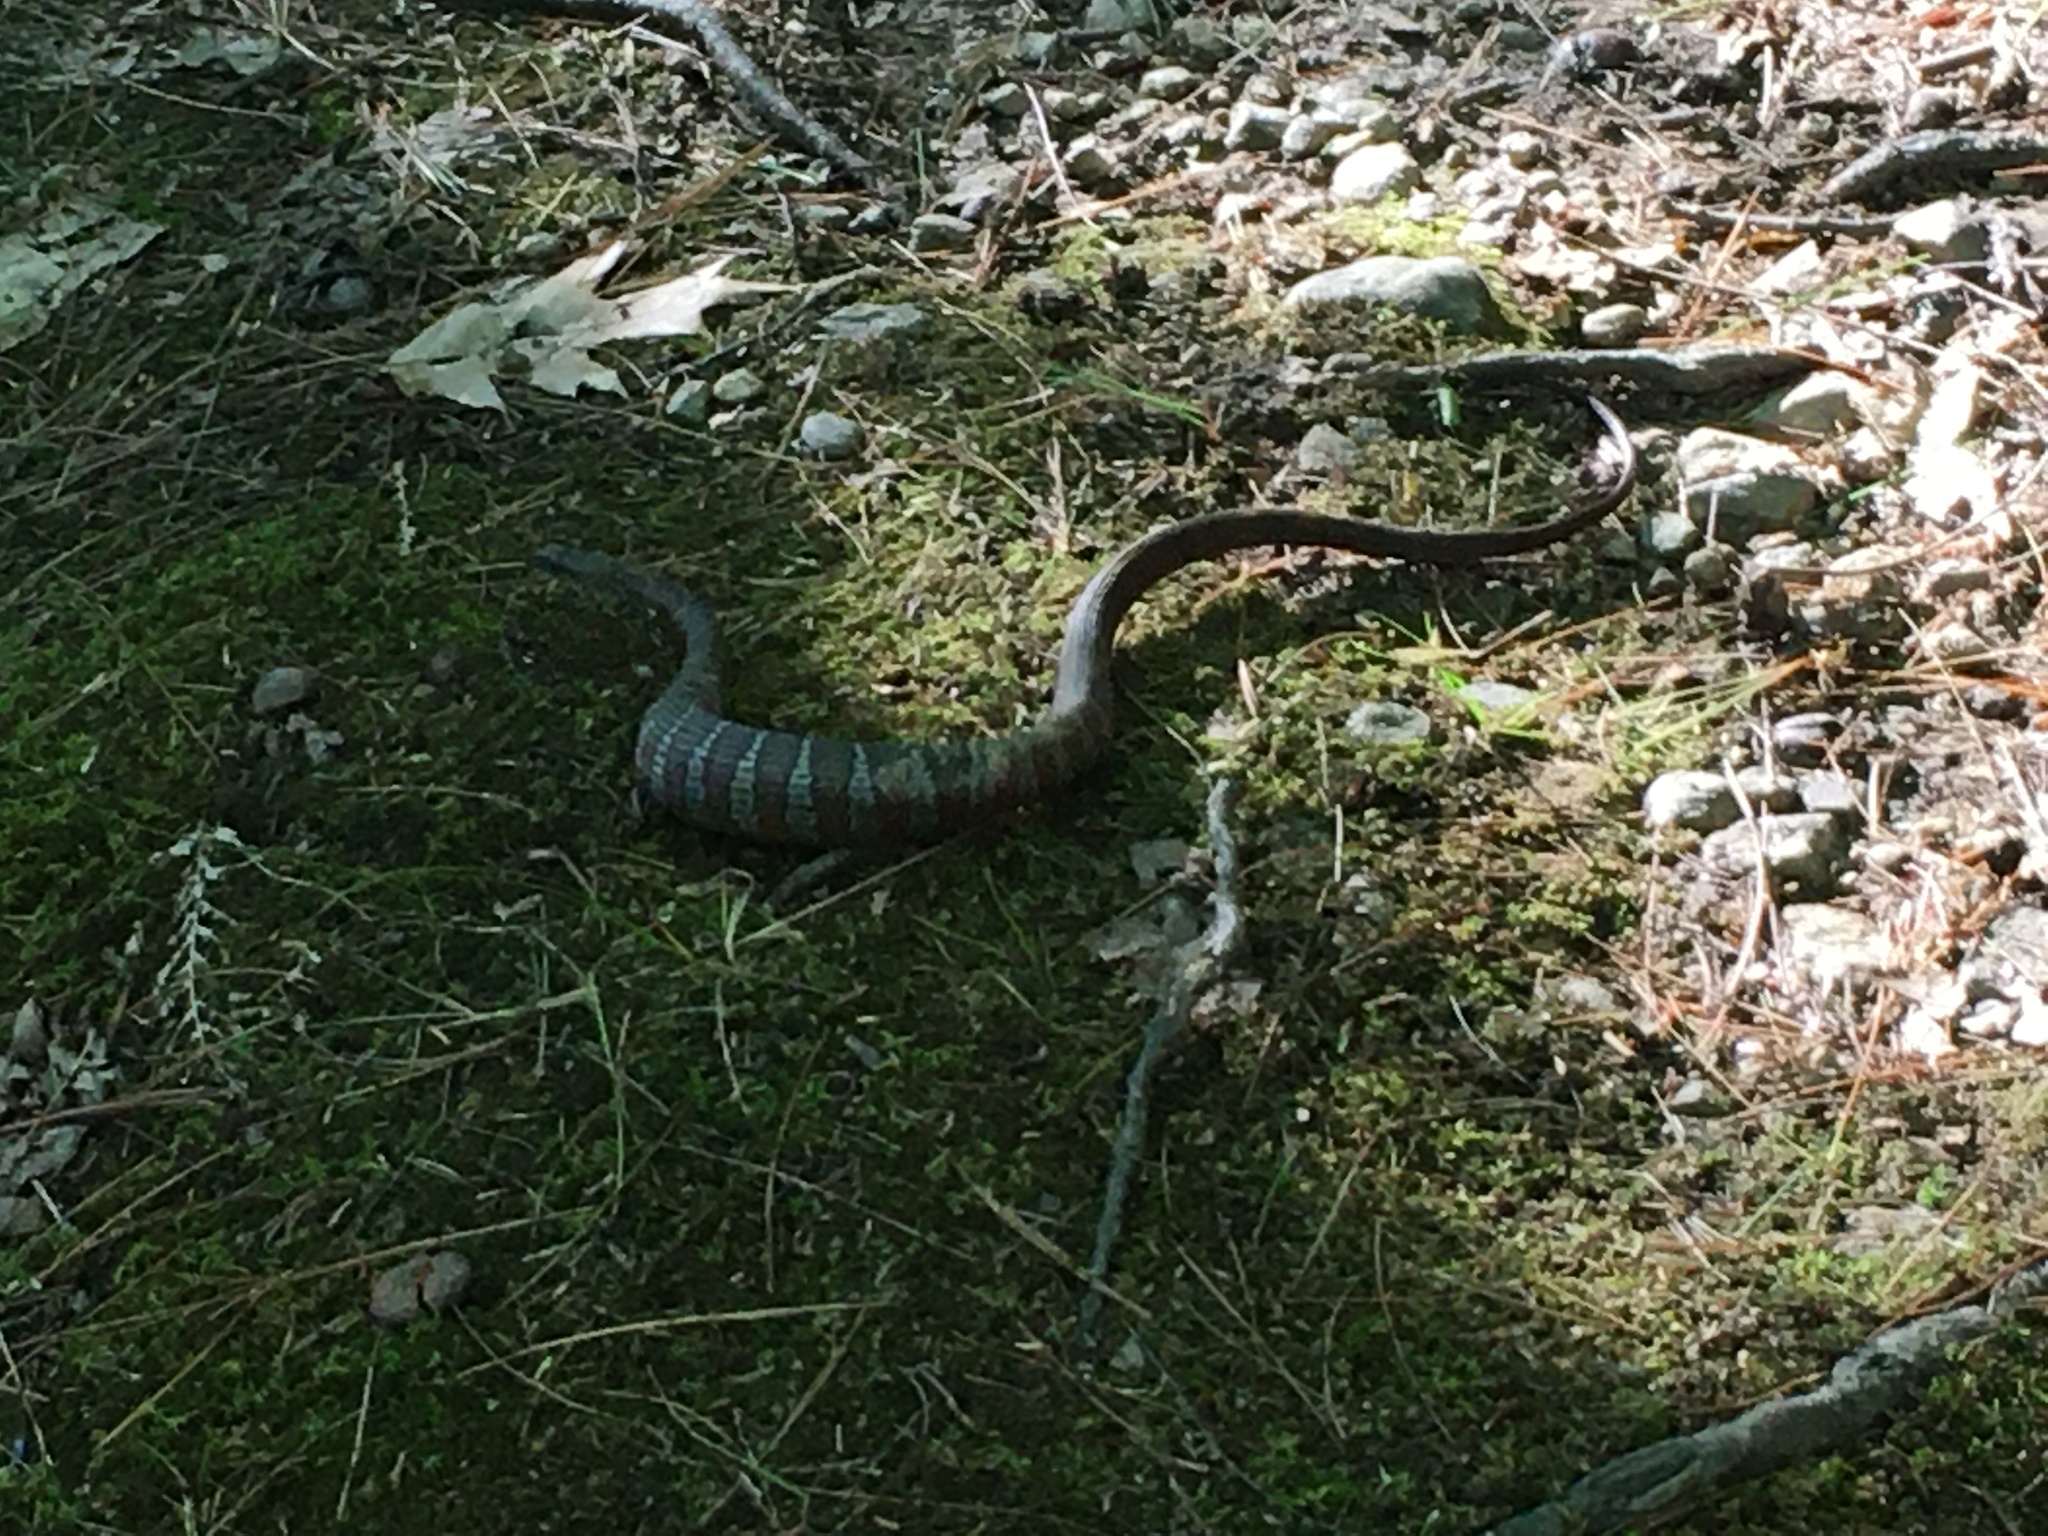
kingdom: Animalia
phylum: Chordata
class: Squamata
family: Colubridae
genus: Nerodia
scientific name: Nerodia sipedon
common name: Northern water snake
